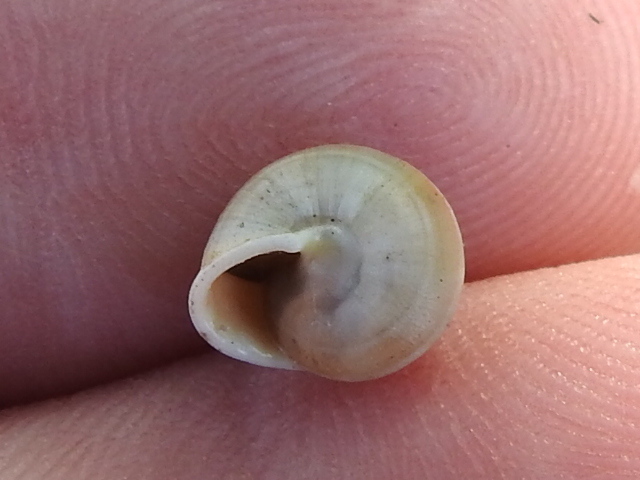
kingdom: Animalia
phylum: Mollusca
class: Gastropoda
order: Cycloneritida
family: Helicinidae
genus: Helicina
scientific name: Helicina orbiculata
